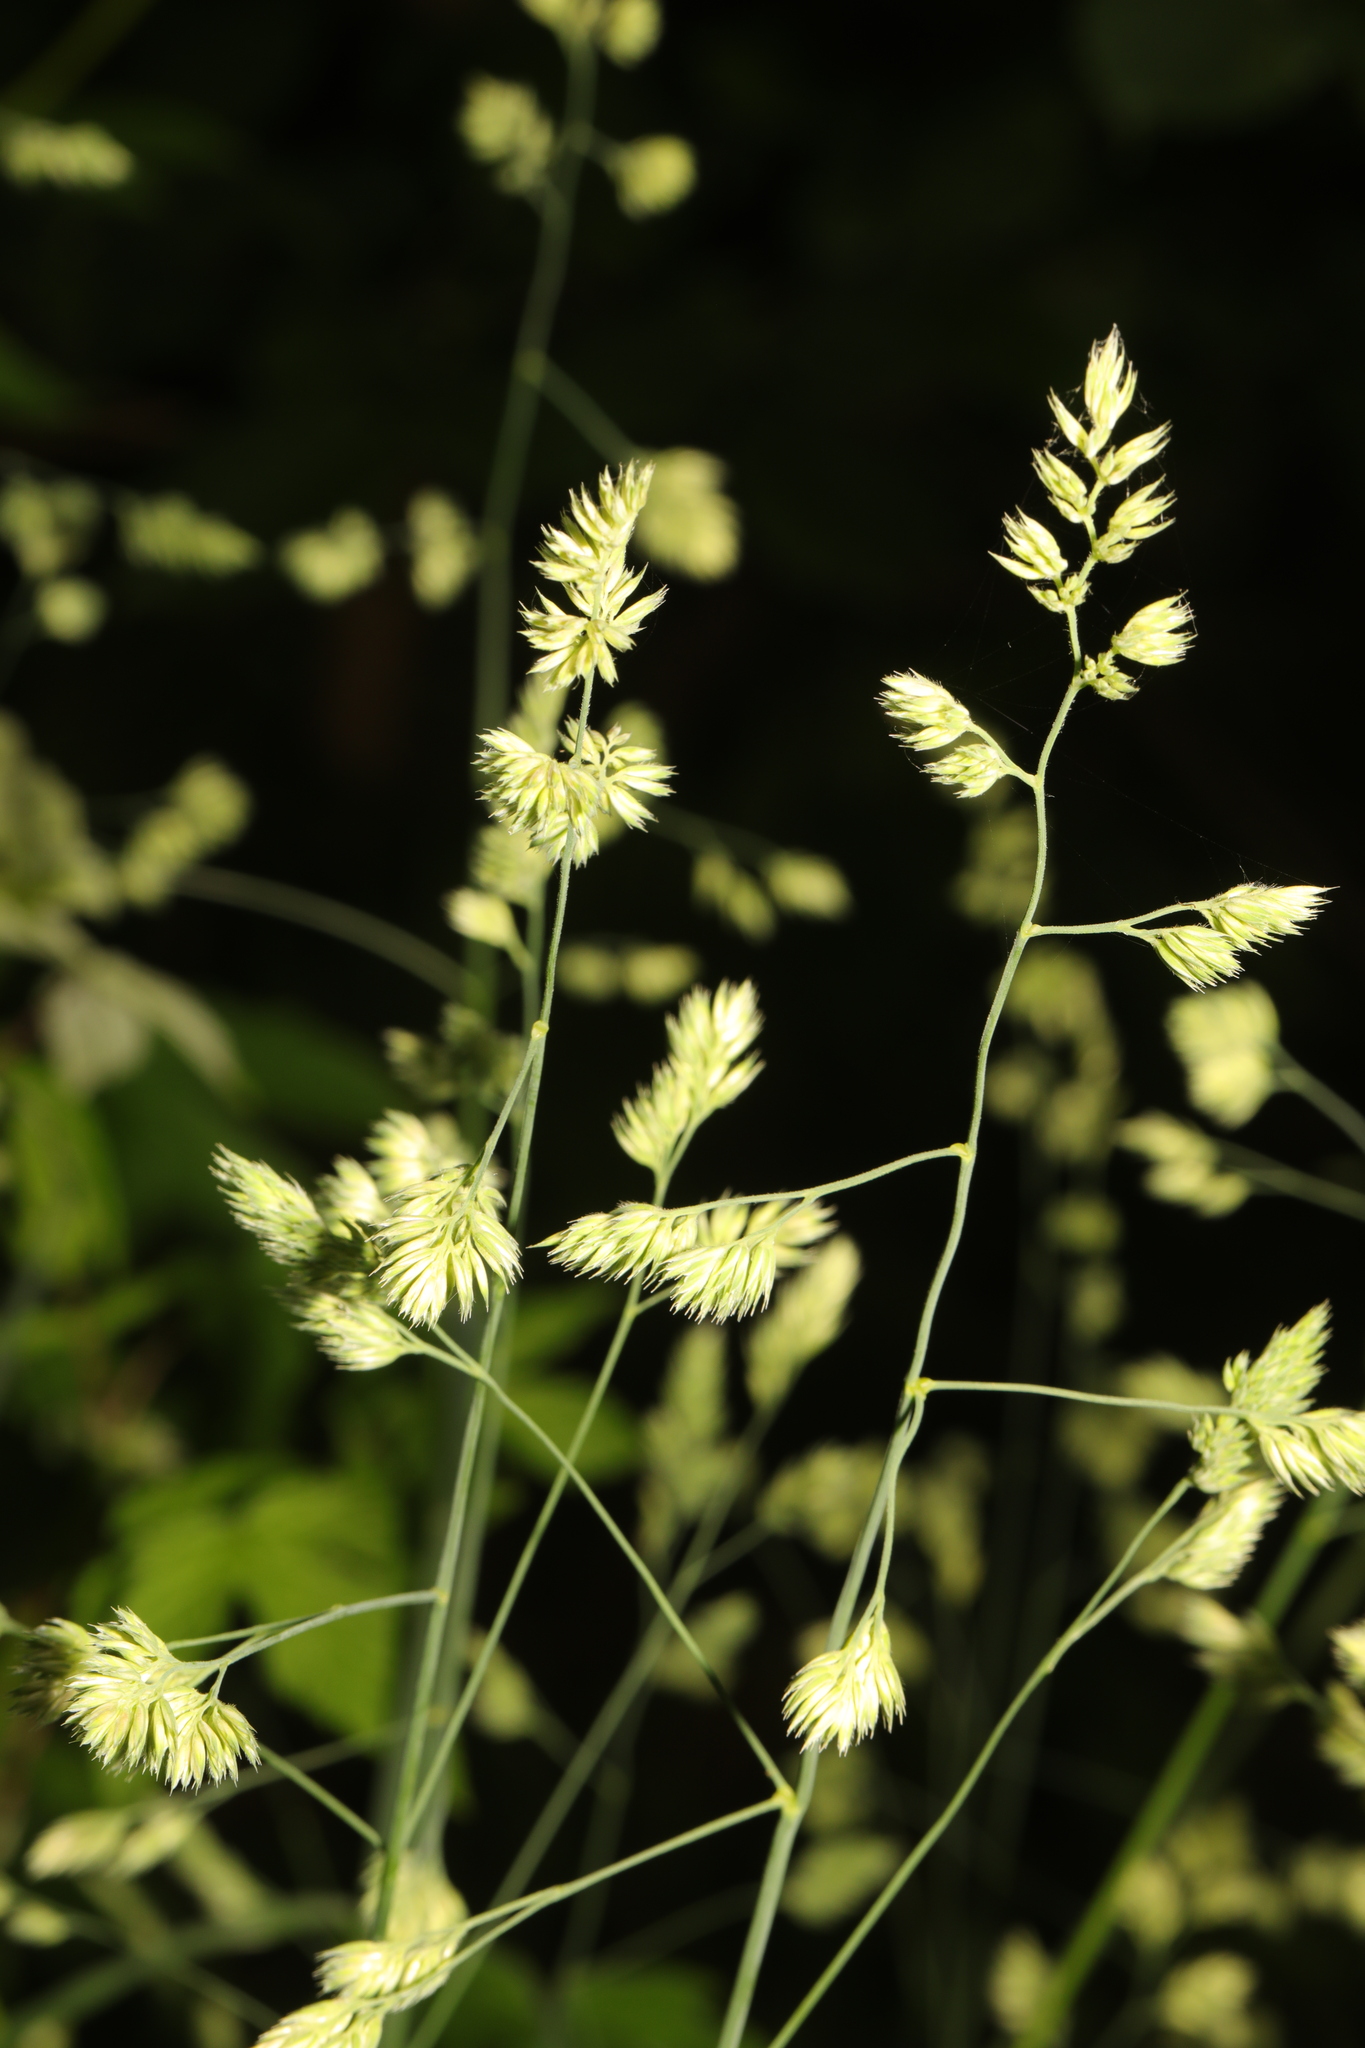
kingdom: Plantae
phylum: Tracheophyta
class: Liliopsida
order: Poales
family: Poaceae
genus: Dactylis
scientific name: Dactylis glomerata
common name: Orchardgrass
